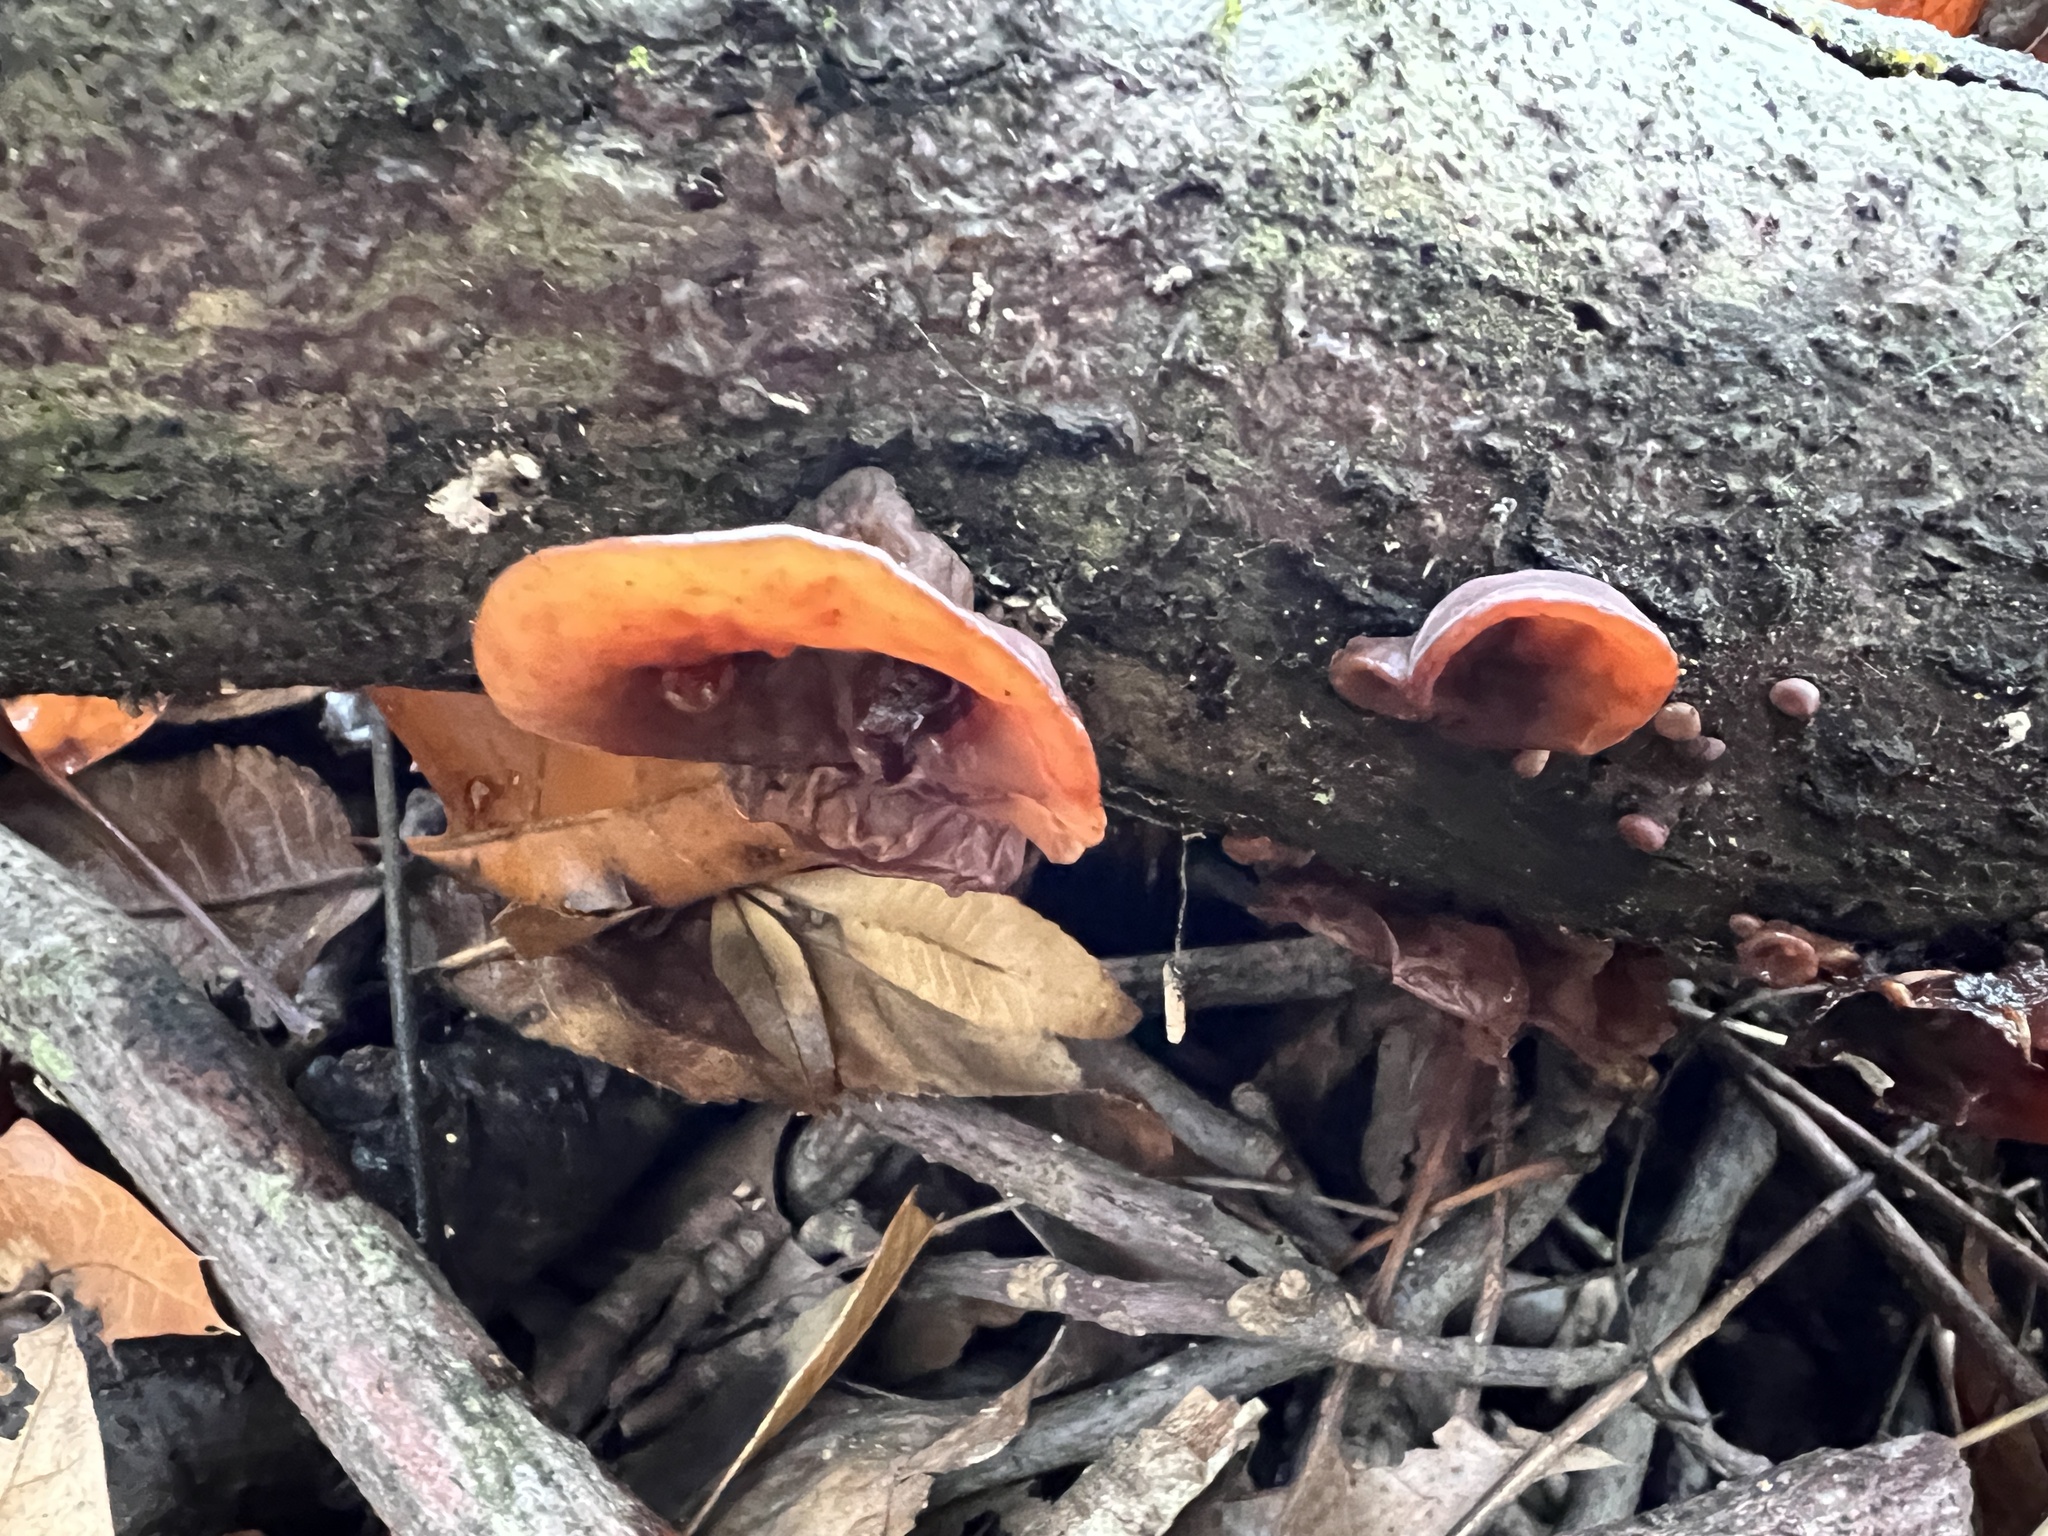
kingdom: Fungi
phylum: Basidiomycota
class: Agaricomycetes
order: Auriculariales
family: Auriculariaceae
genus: Auricularia
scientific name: Auricularia angiospermarum
